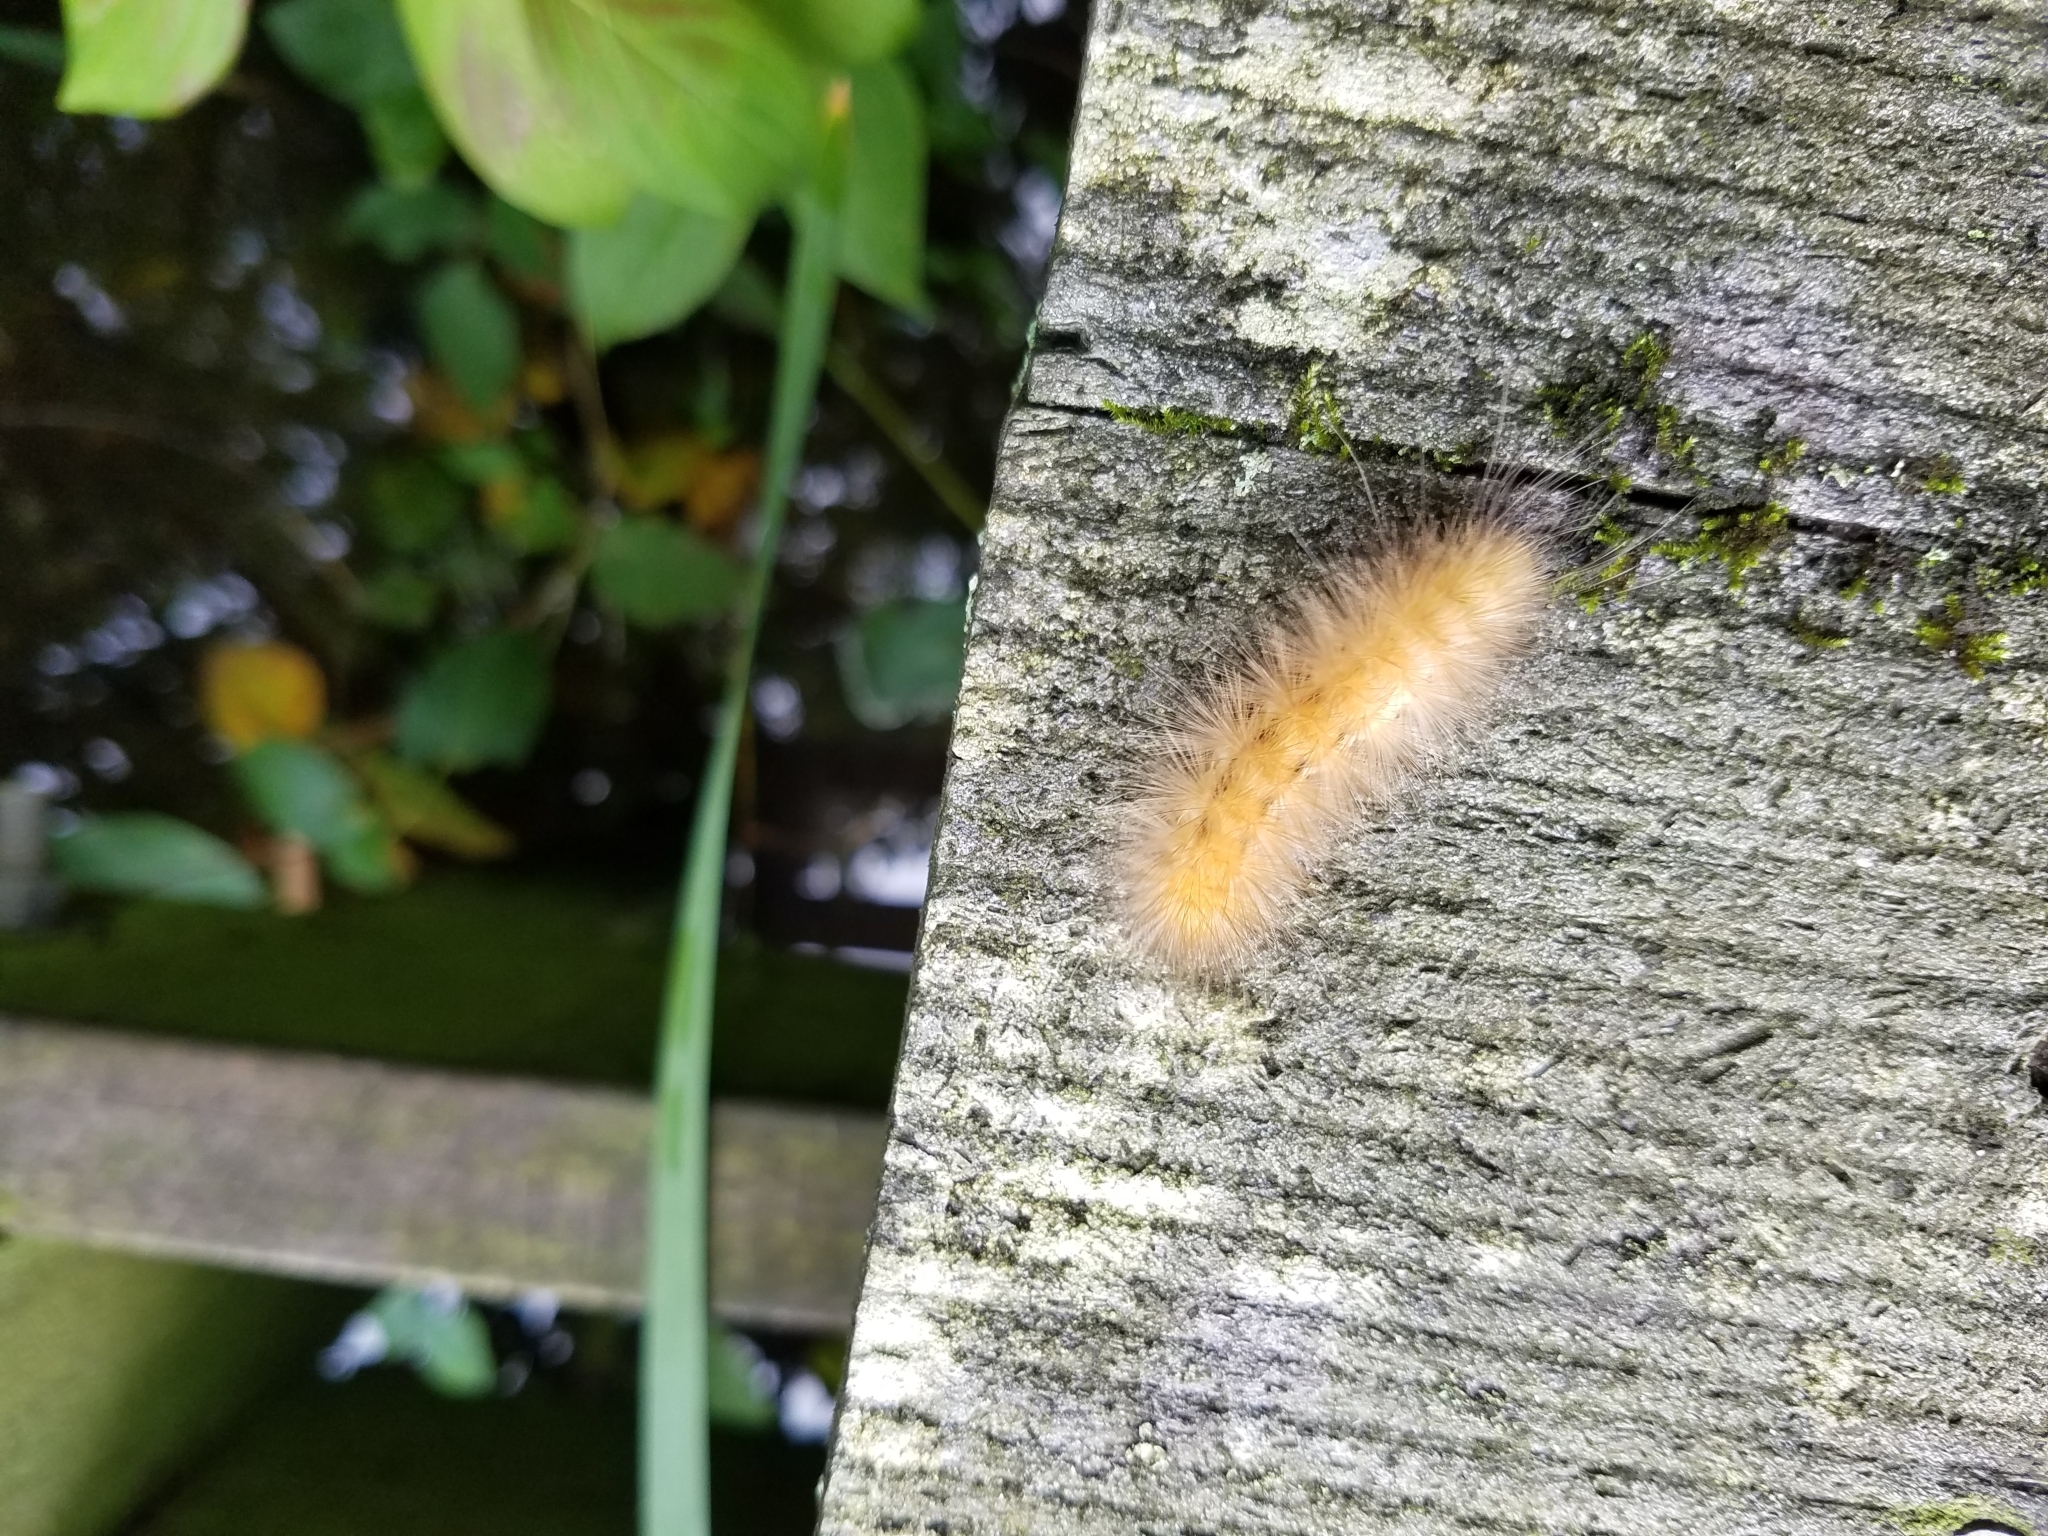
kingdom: Animalia
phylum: Arthropoda
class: Insecta
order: Lepidoptera
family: Erebidae
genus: Spilosoma
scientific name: Spilosoma virginica
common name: Virginia tiger moth
